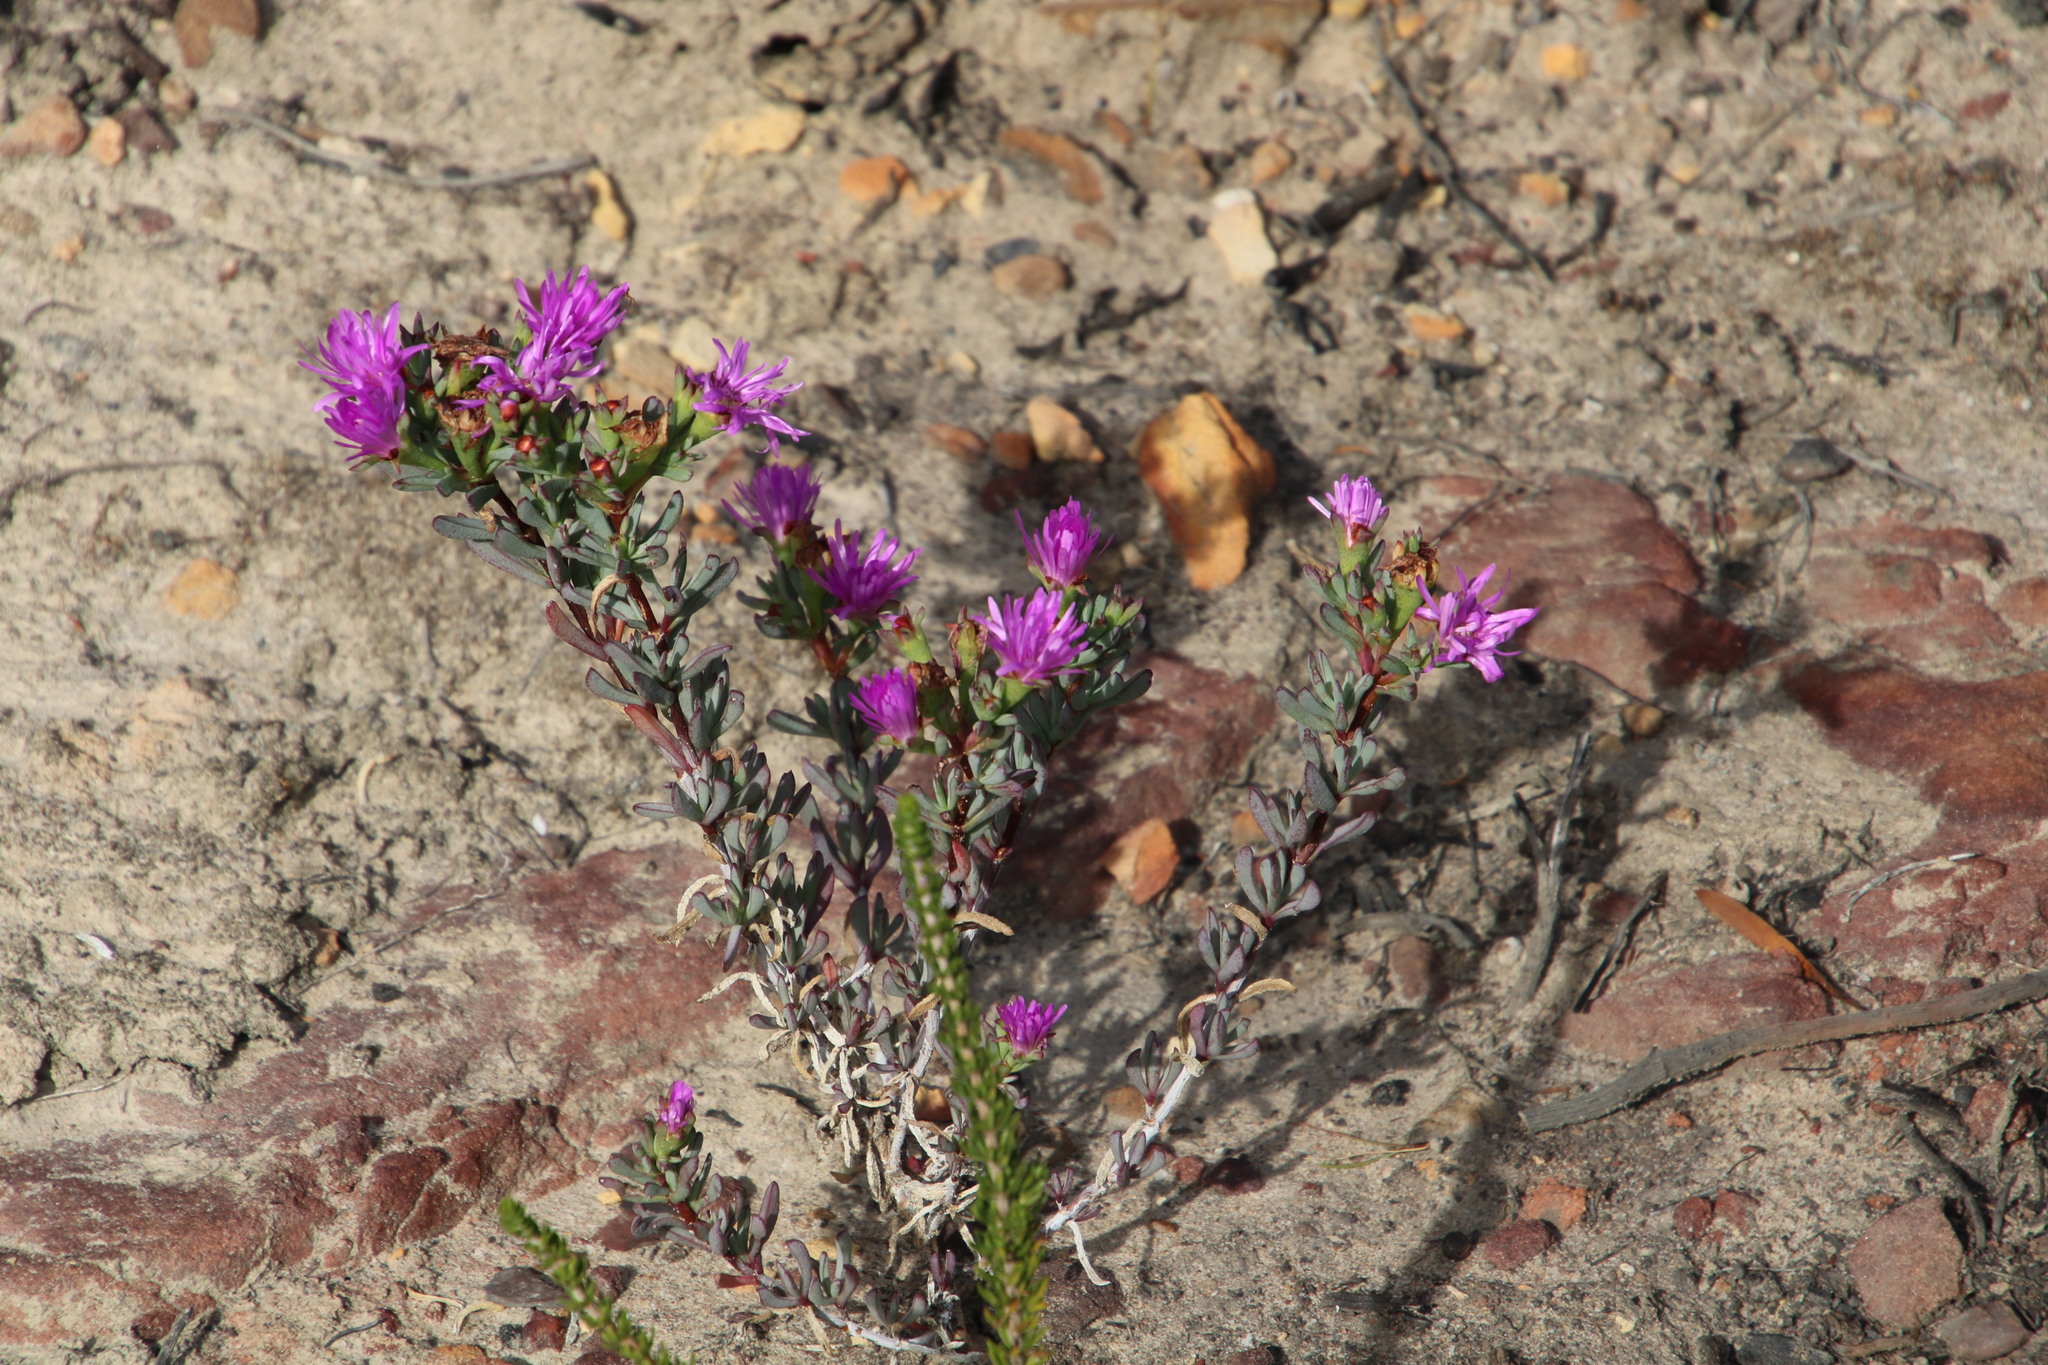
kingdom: Plantae
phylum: Tracheophyta
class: Magnoliopsida
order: Caryophyllales
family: Aizoaceae
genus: Lampranthus
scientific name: Lampranthus glomeratus
